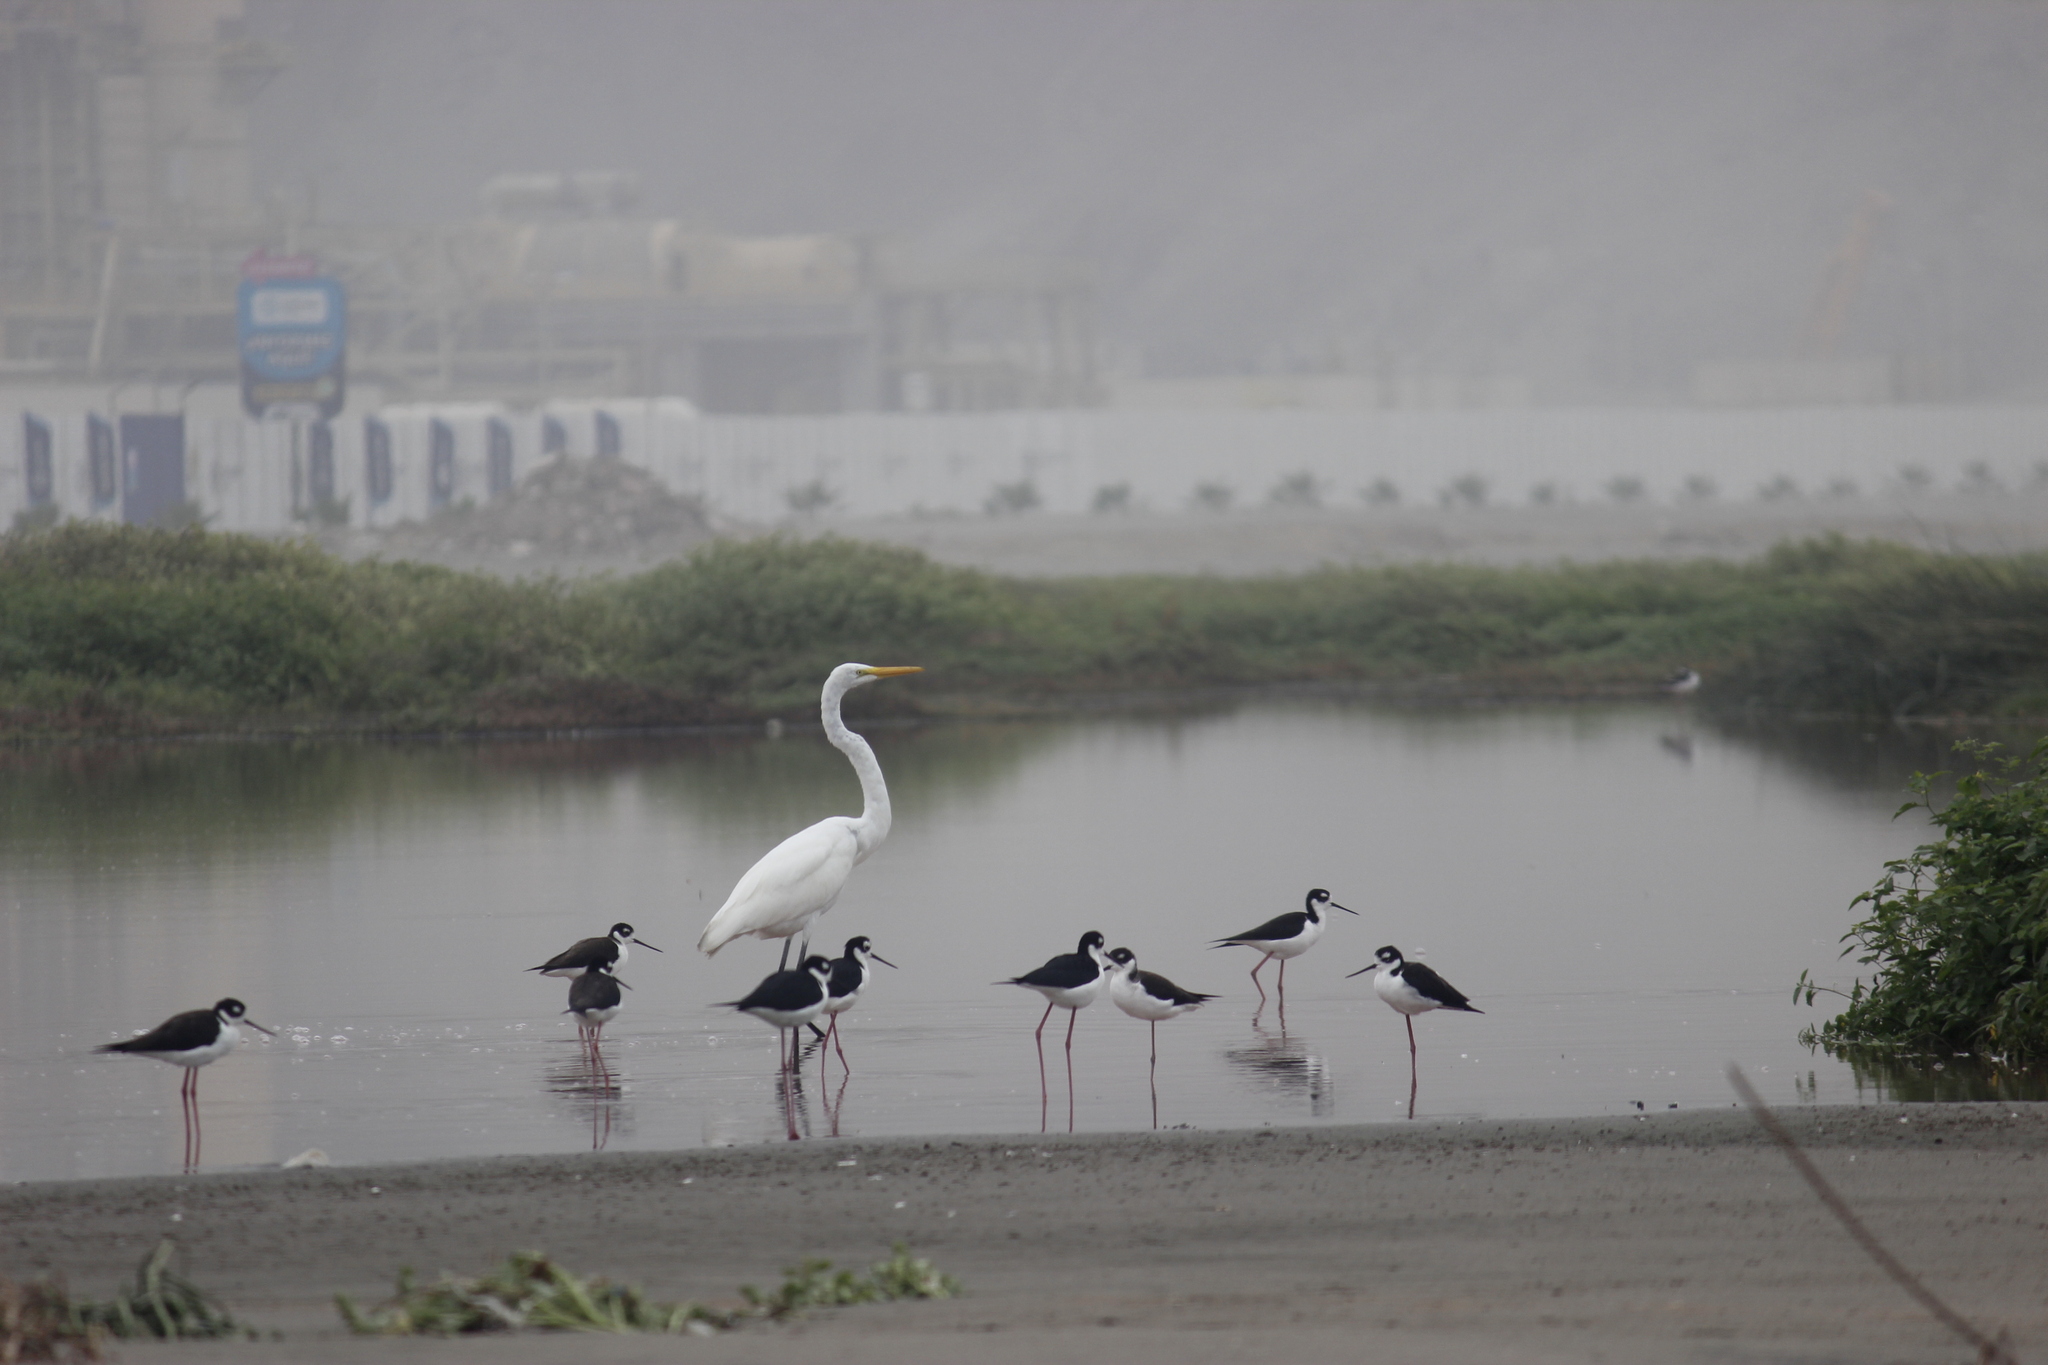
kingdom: Animalia
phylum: Chordata
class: Aves
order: Pelecaniformes
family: Ardeidae
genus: Ardea
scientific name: Ardea alba
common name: Great egret
